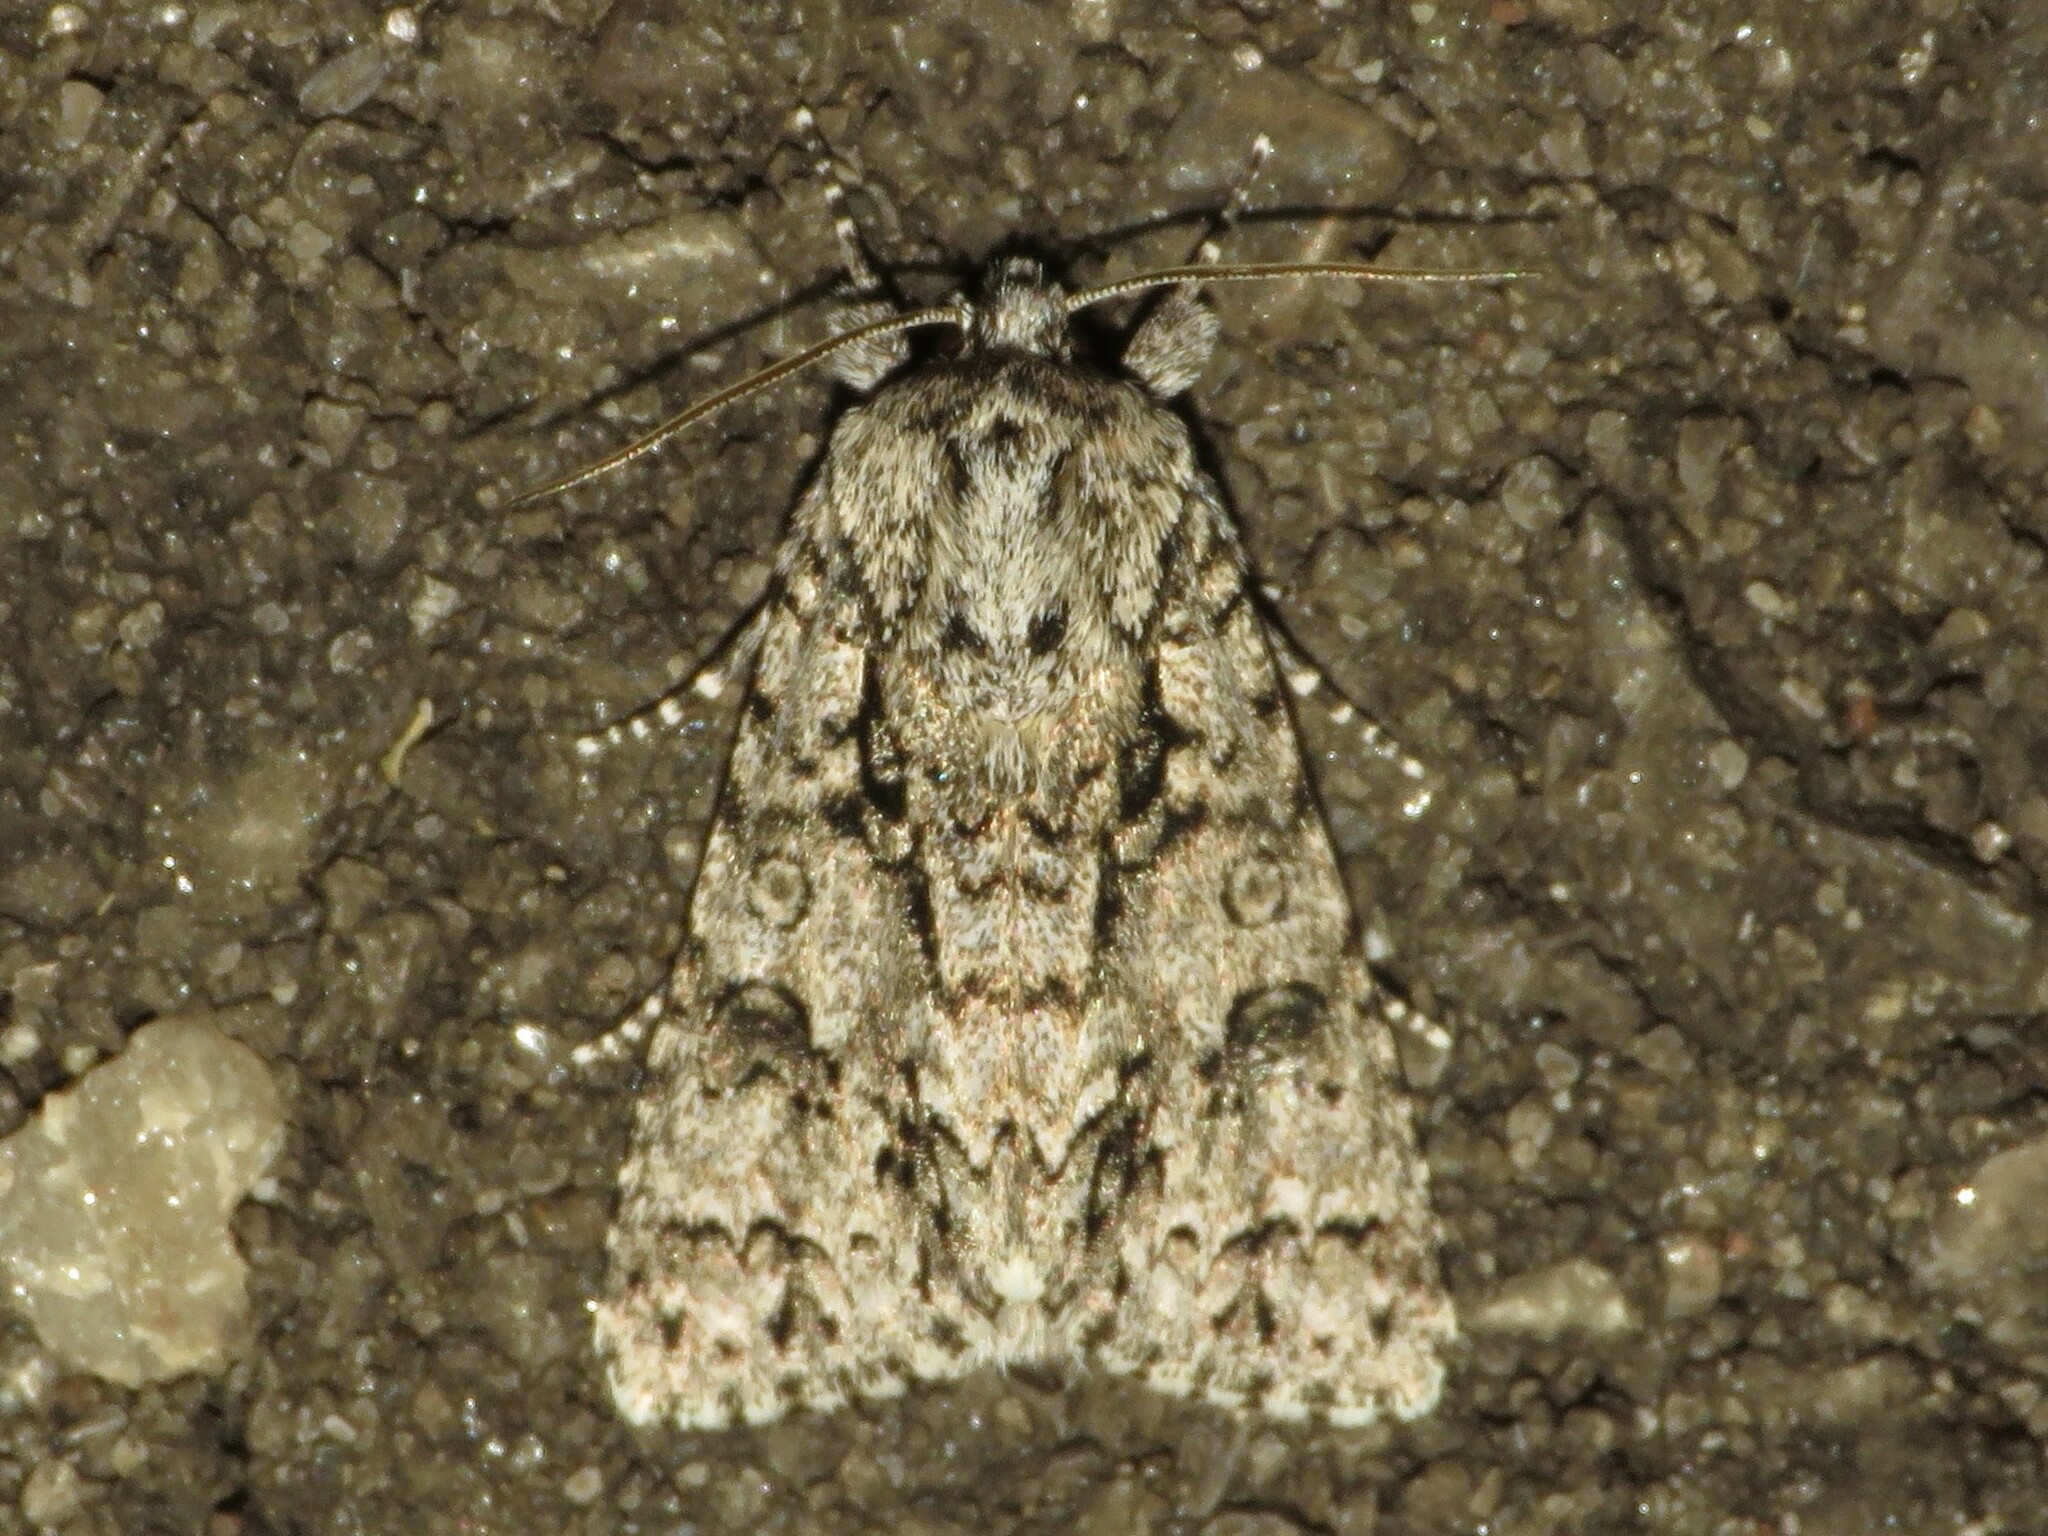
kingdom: Animalia
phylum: Arthropoda
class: Insecta
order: Lepidoptera
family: Noctuidae
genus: Acronicta
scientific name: Acronicta impressa
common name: Impressed dagger
